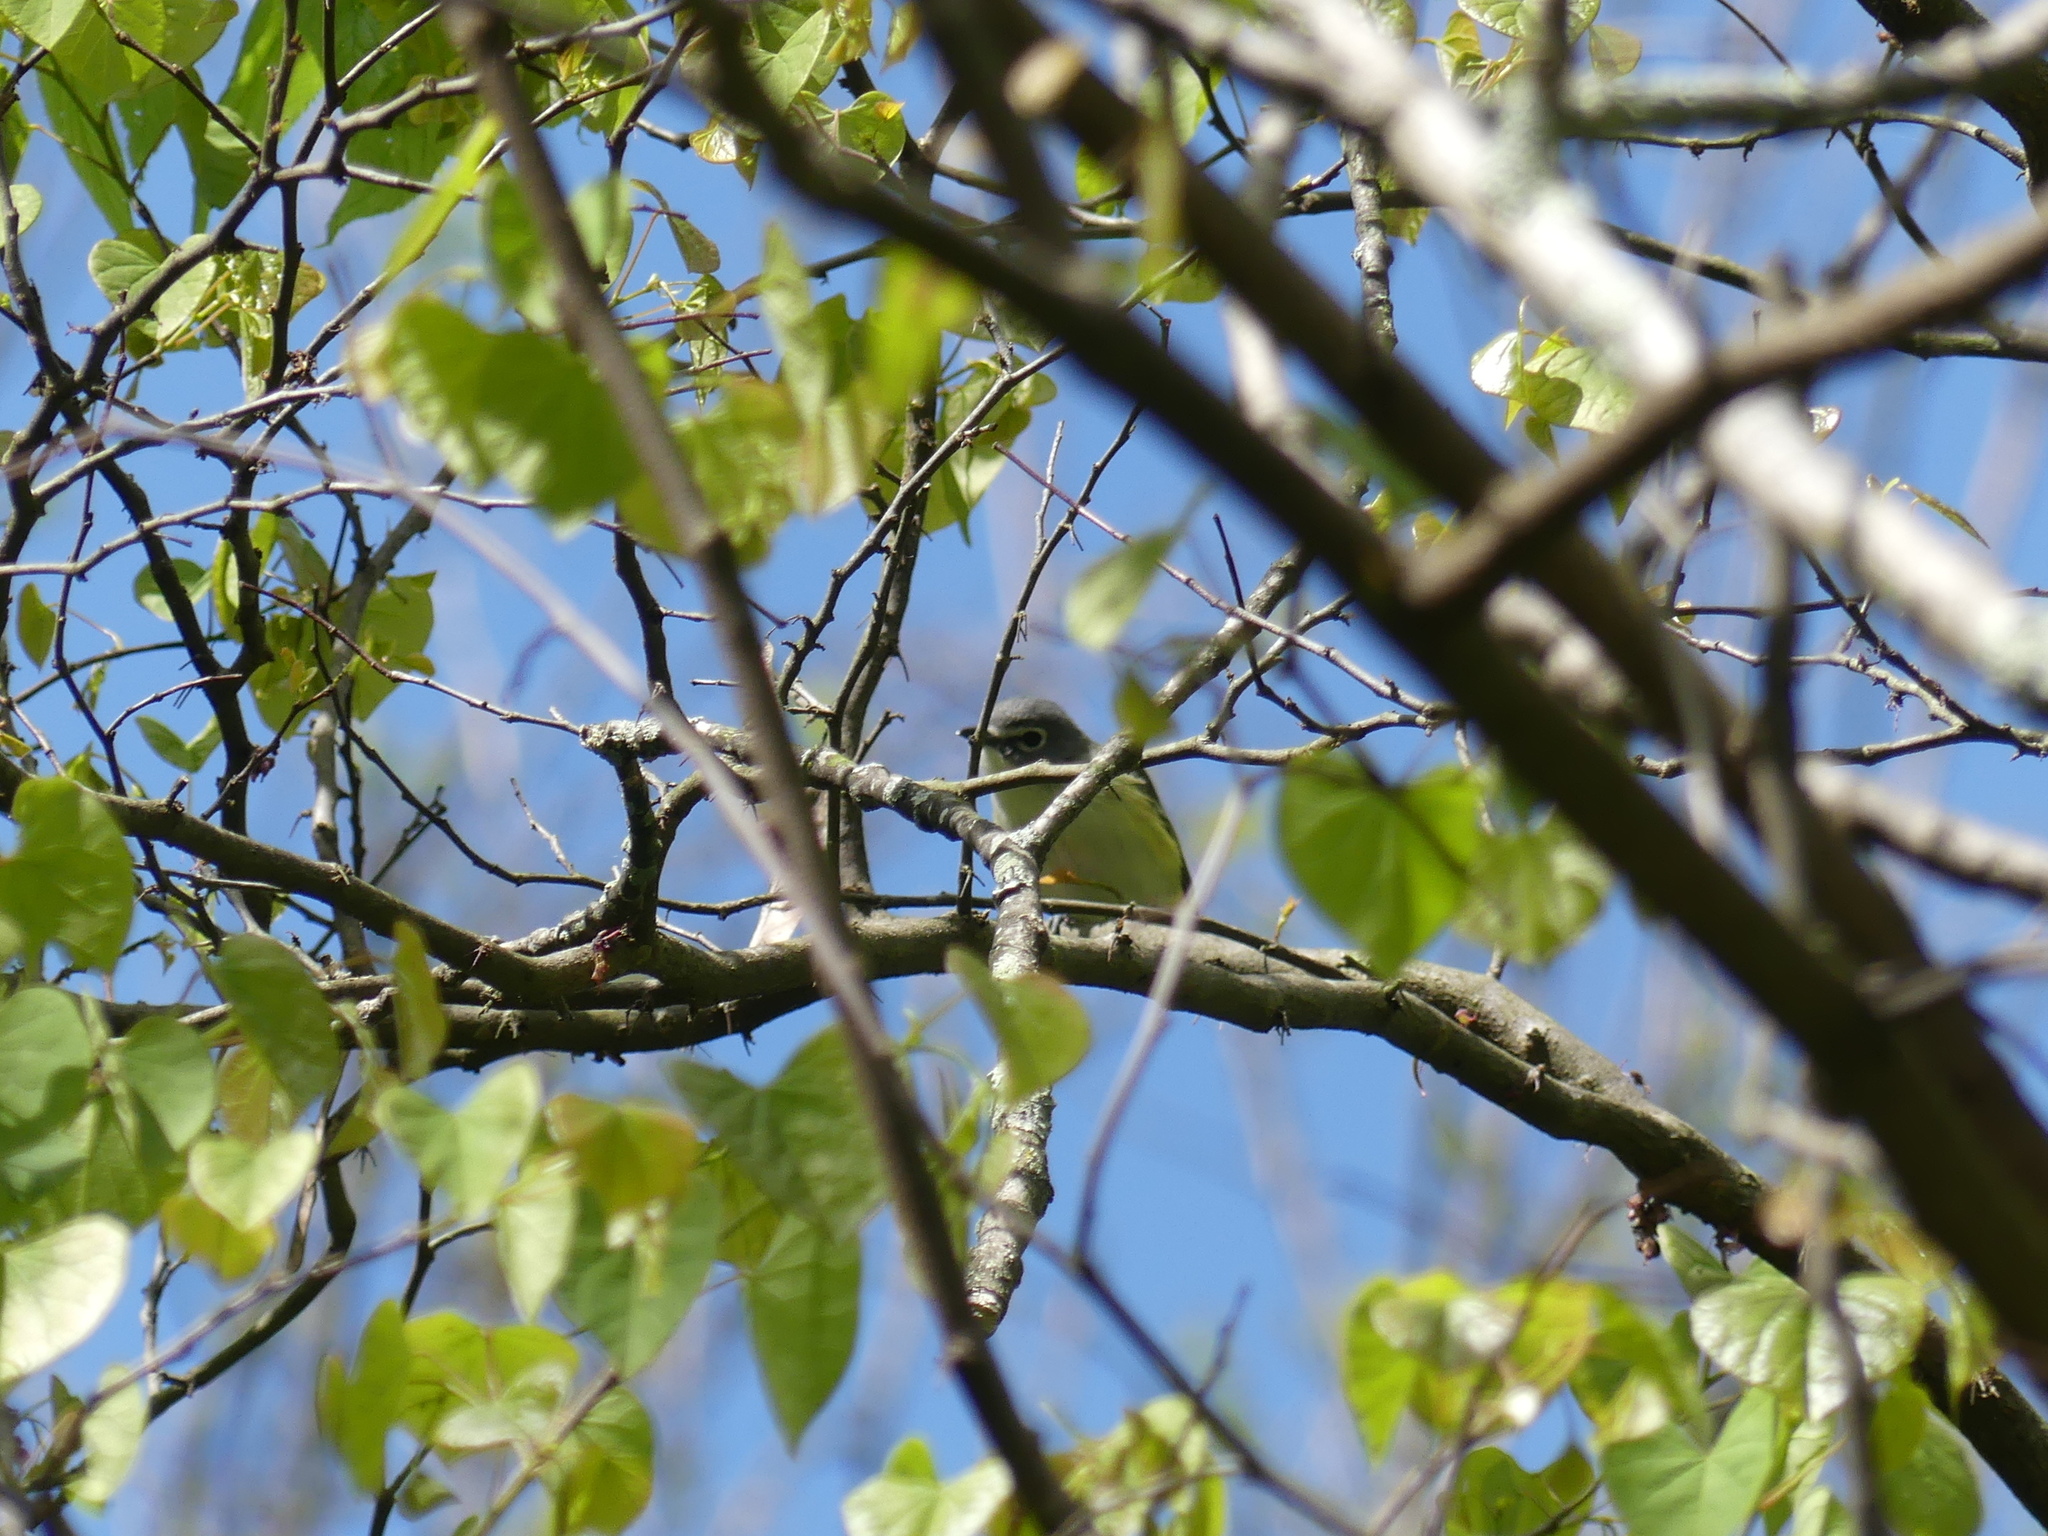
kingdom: Animalia
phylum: Chordata
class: Aves
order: Passeriformes
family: Vireonidae
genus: Vireo
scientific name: Vireo solitarius
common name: Blue-headed vireo
